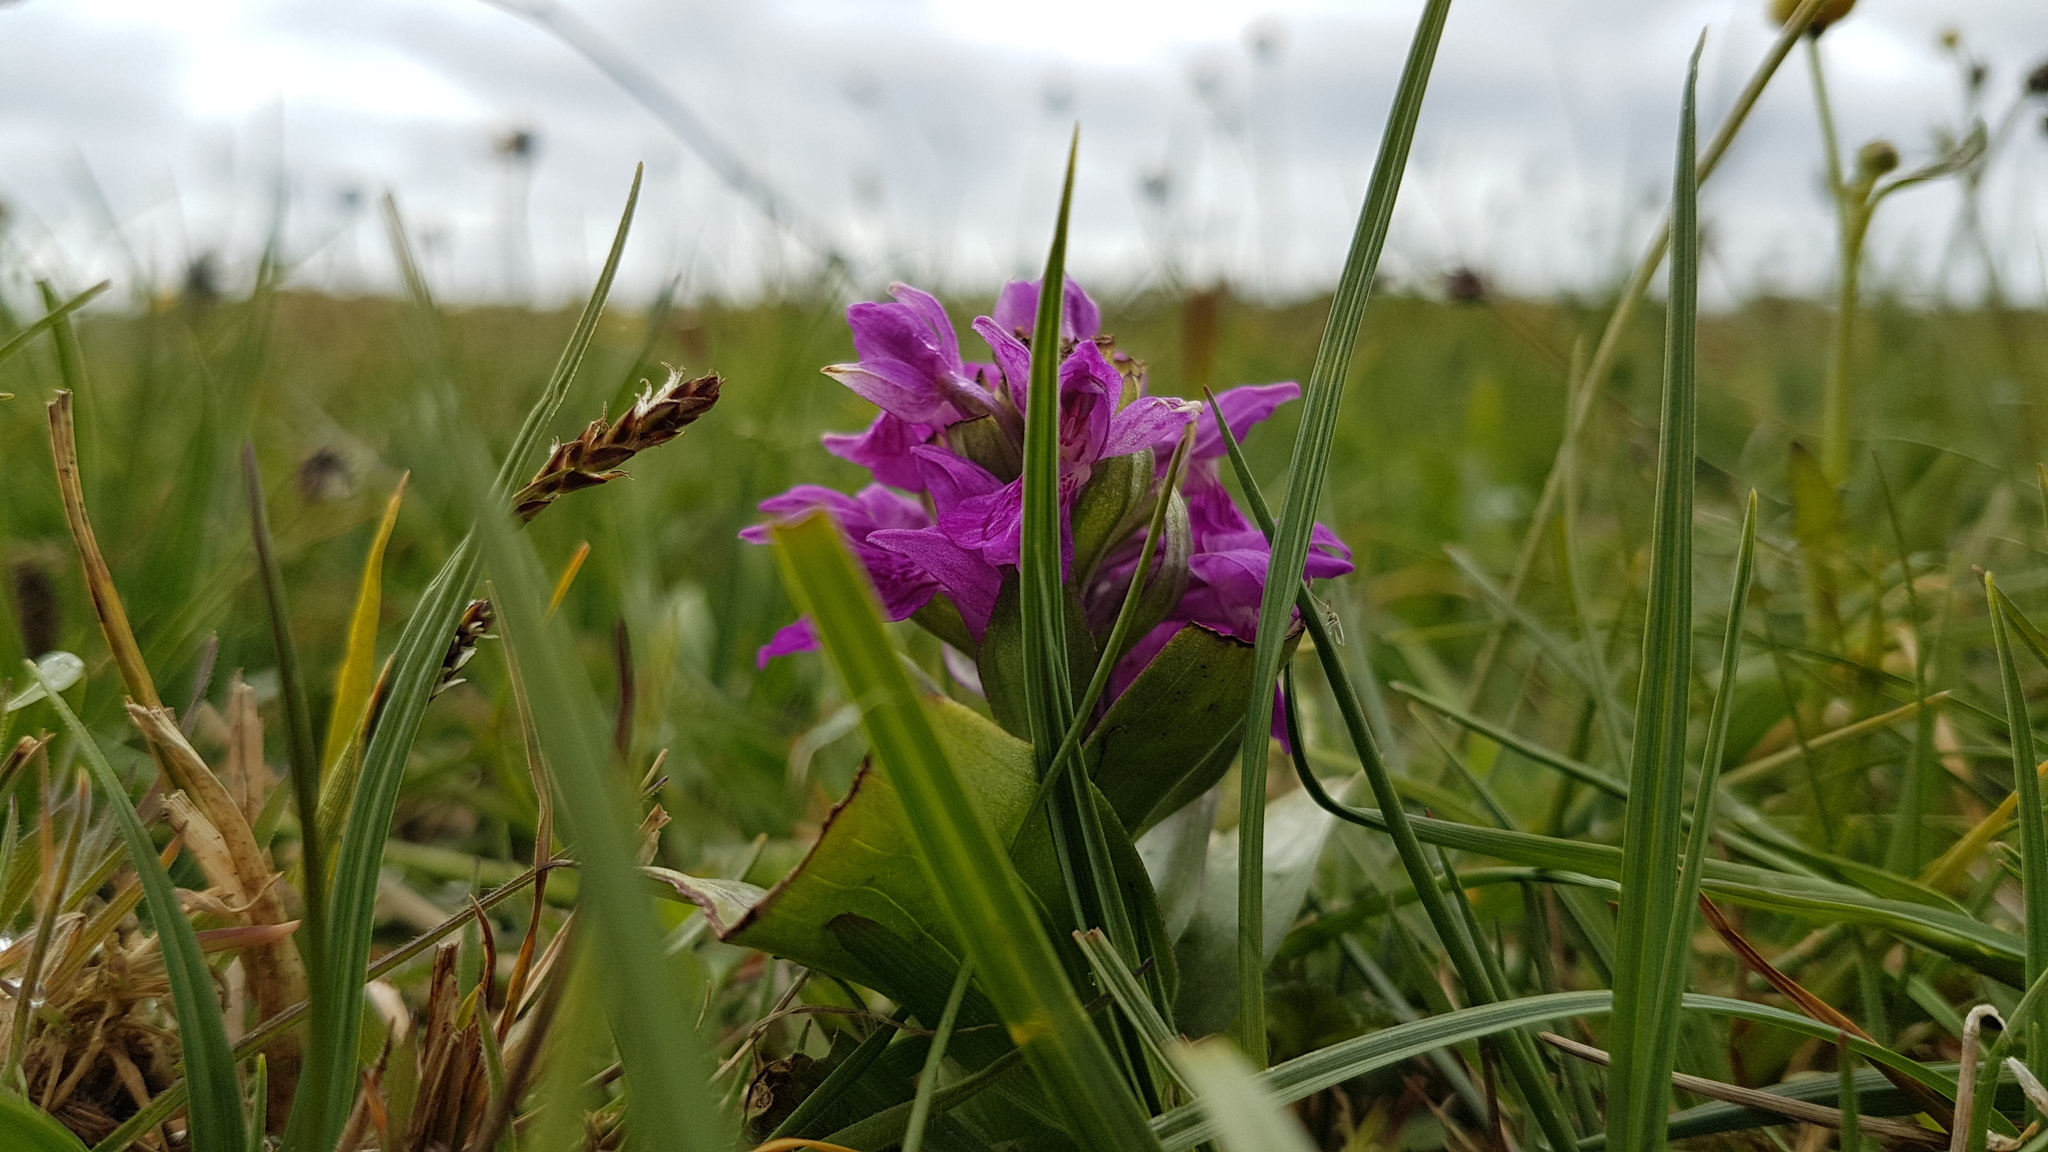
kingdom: Plantae
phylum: Tracheophyta
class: Liliopsida
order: Asparagales
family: Orchidaceae
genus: Dactylorhiza
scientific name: Dactylorhiza majalis
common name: Marsh orchid
